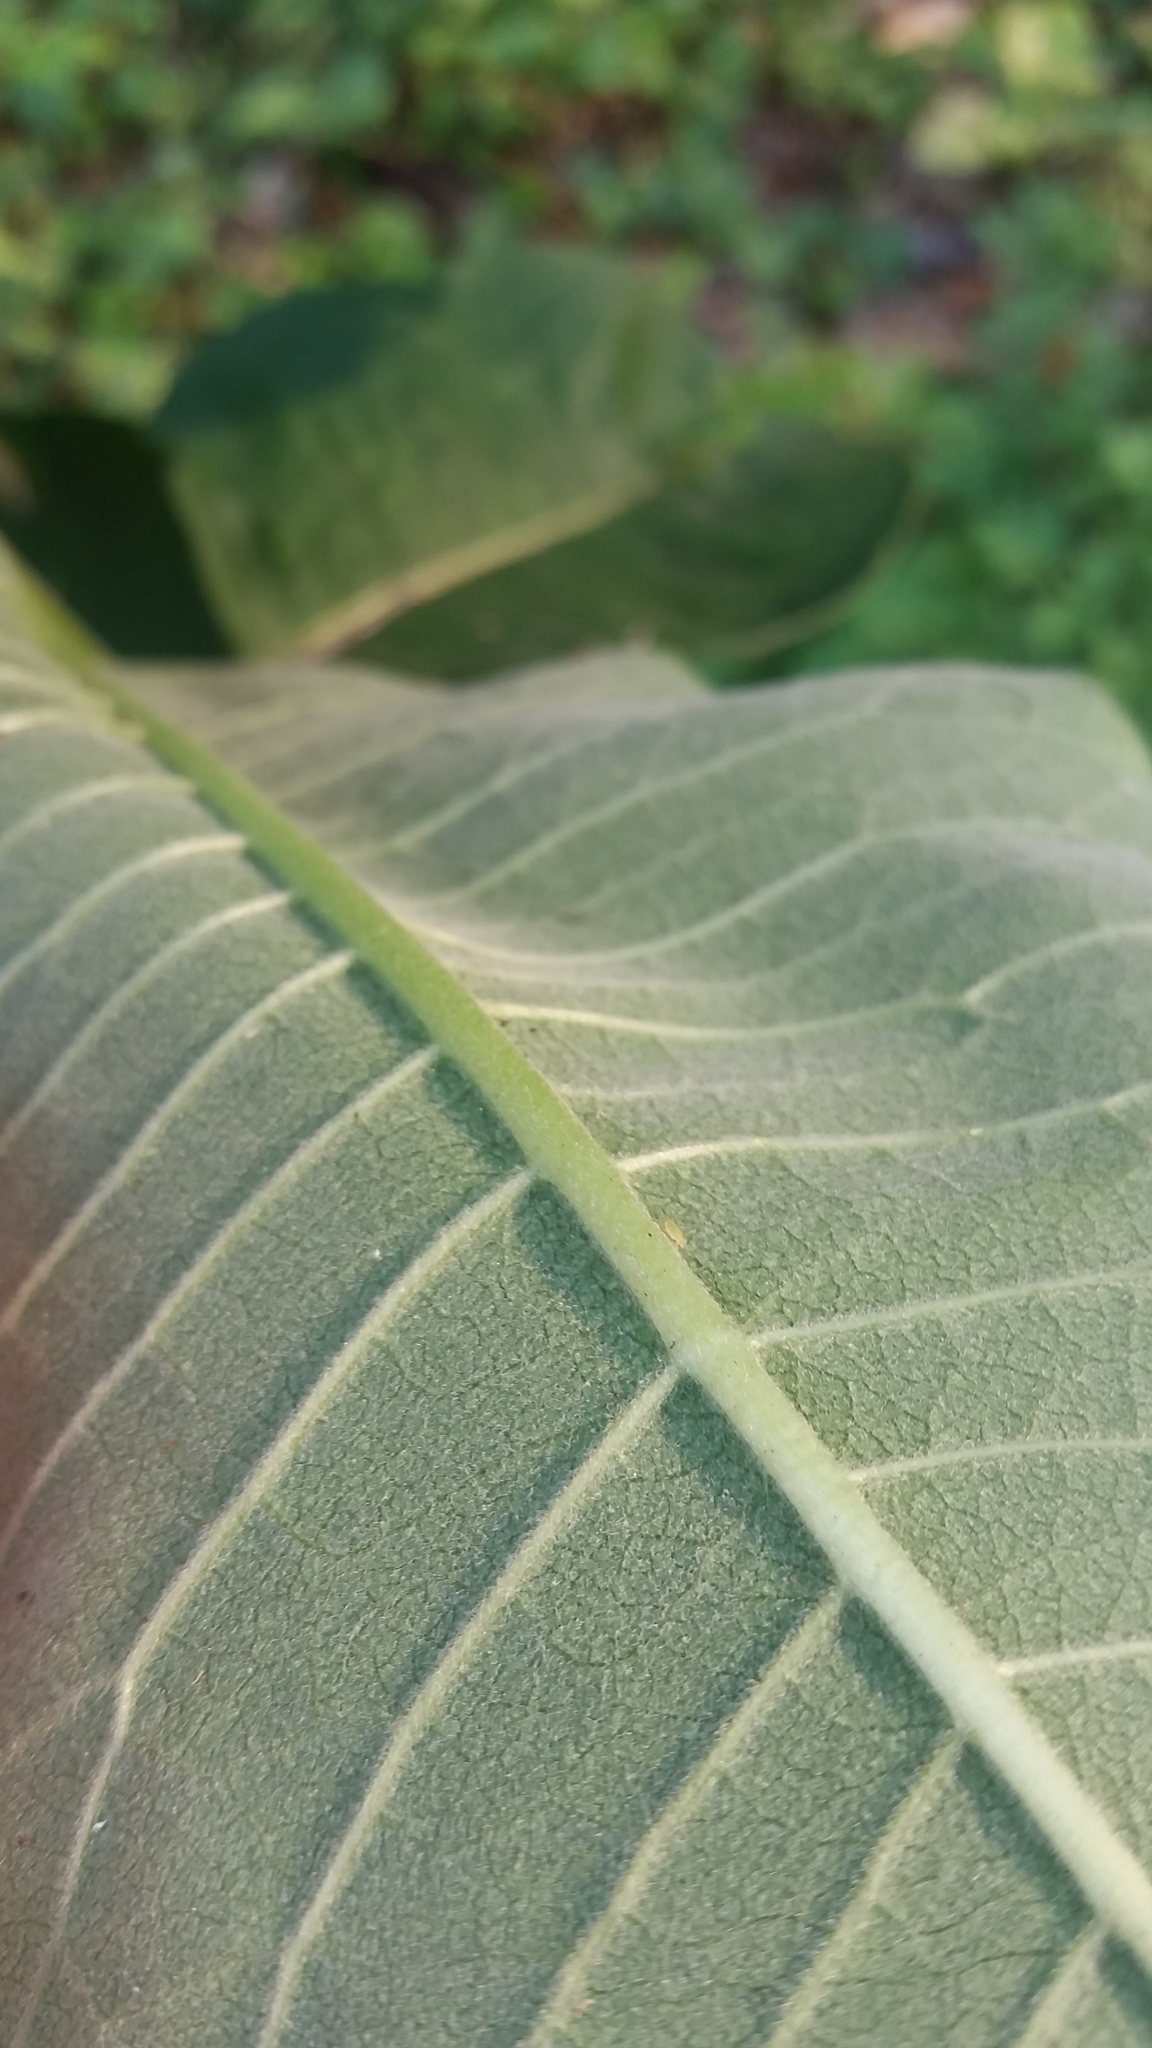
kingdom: Plantae
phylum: Tracheophyta
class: Magnoliopsida
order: Gentianales
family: Apocynaceae
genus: Asclepias
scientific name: Asclepias syriaca
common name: Common milkweed
